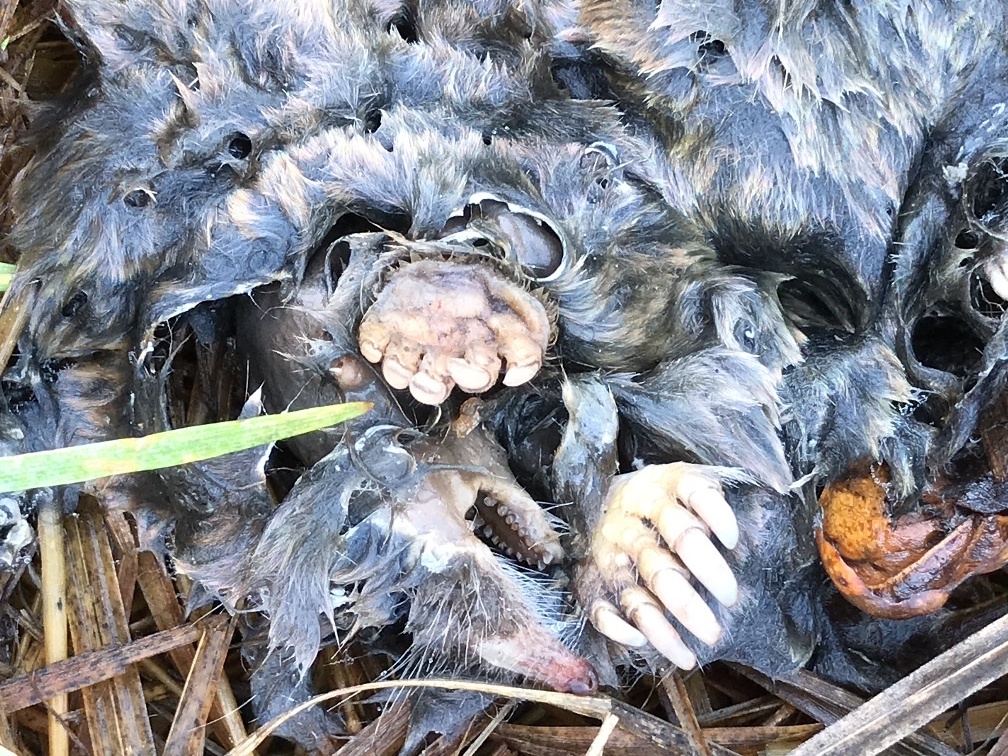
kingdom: Animalia
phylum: Chordata
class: Mammalia
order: Soricomorpha
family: Talpidae
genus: Scapanus
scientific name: Scapanus latimanus
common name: Broad-footed mole
